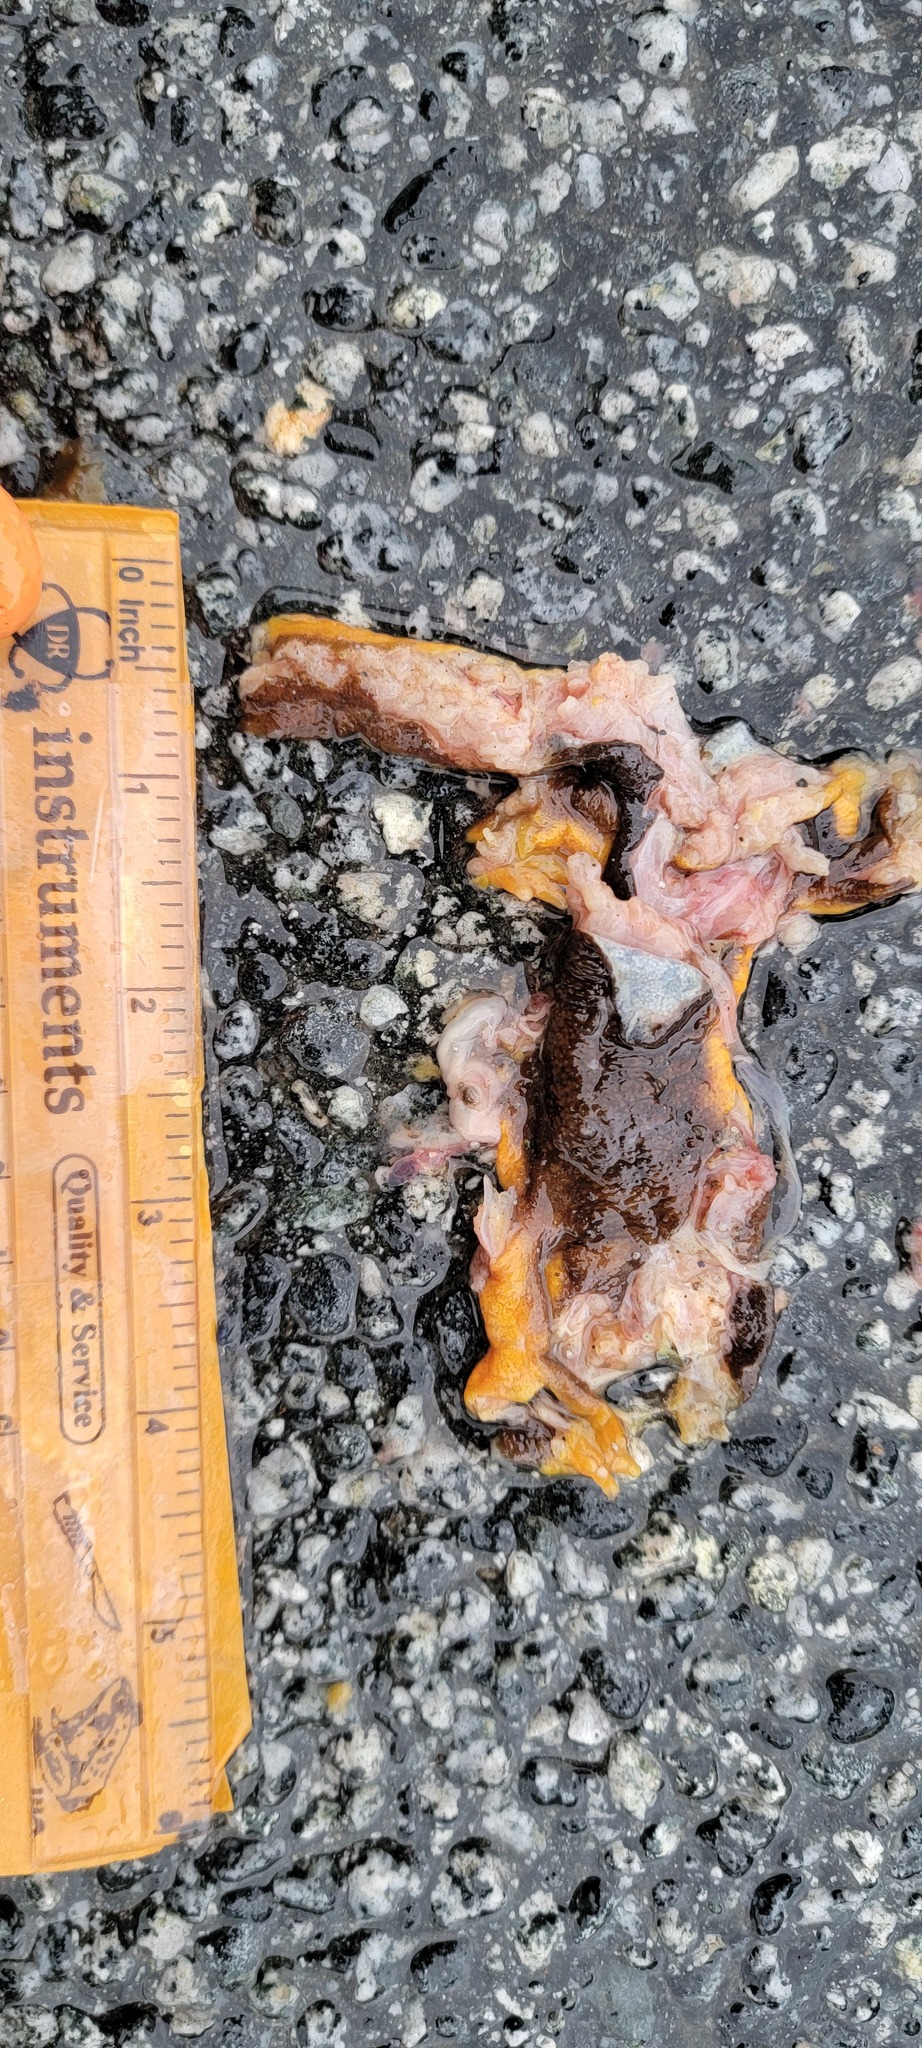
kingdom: Animalia
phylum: Chordata
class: Amphibia
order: Caudata
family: Salamandridae
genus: Taricha
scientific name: Taricha
